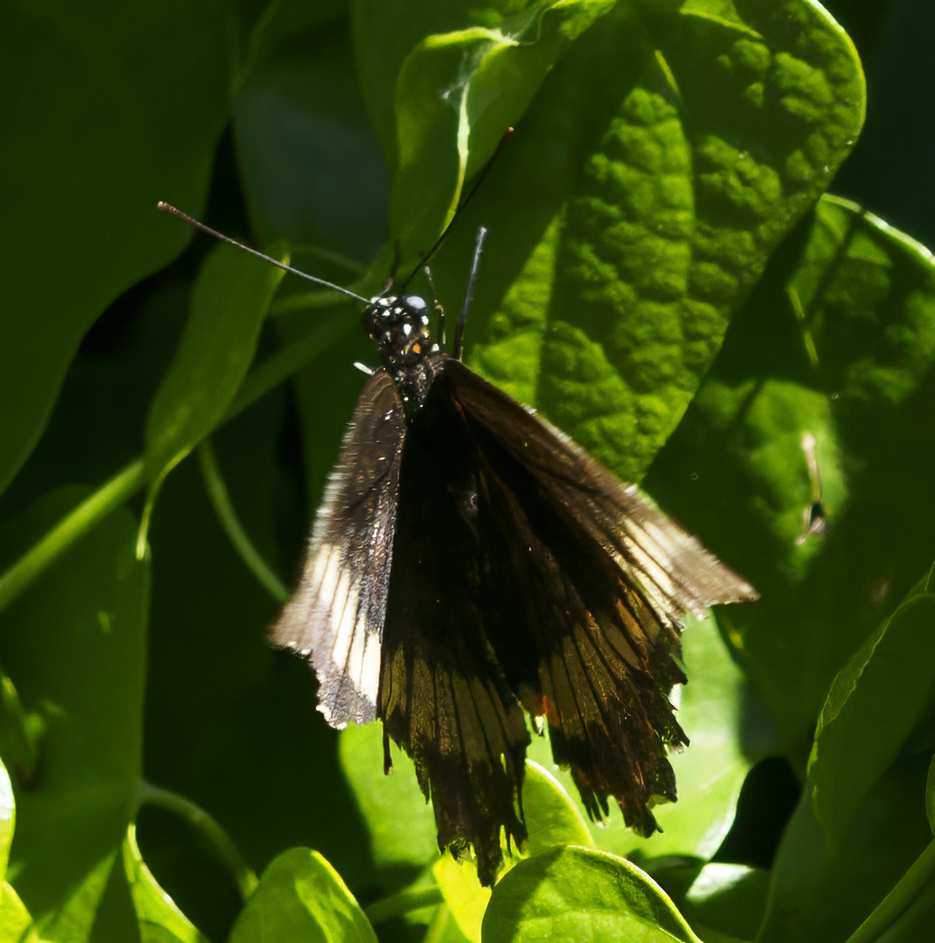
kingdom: Animalia
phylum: Arthropoda
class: Insecta
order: Lepidoptera
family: Papilionidae
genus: Battus
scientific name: Battus polydamas
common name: Polydamas swallowtail
